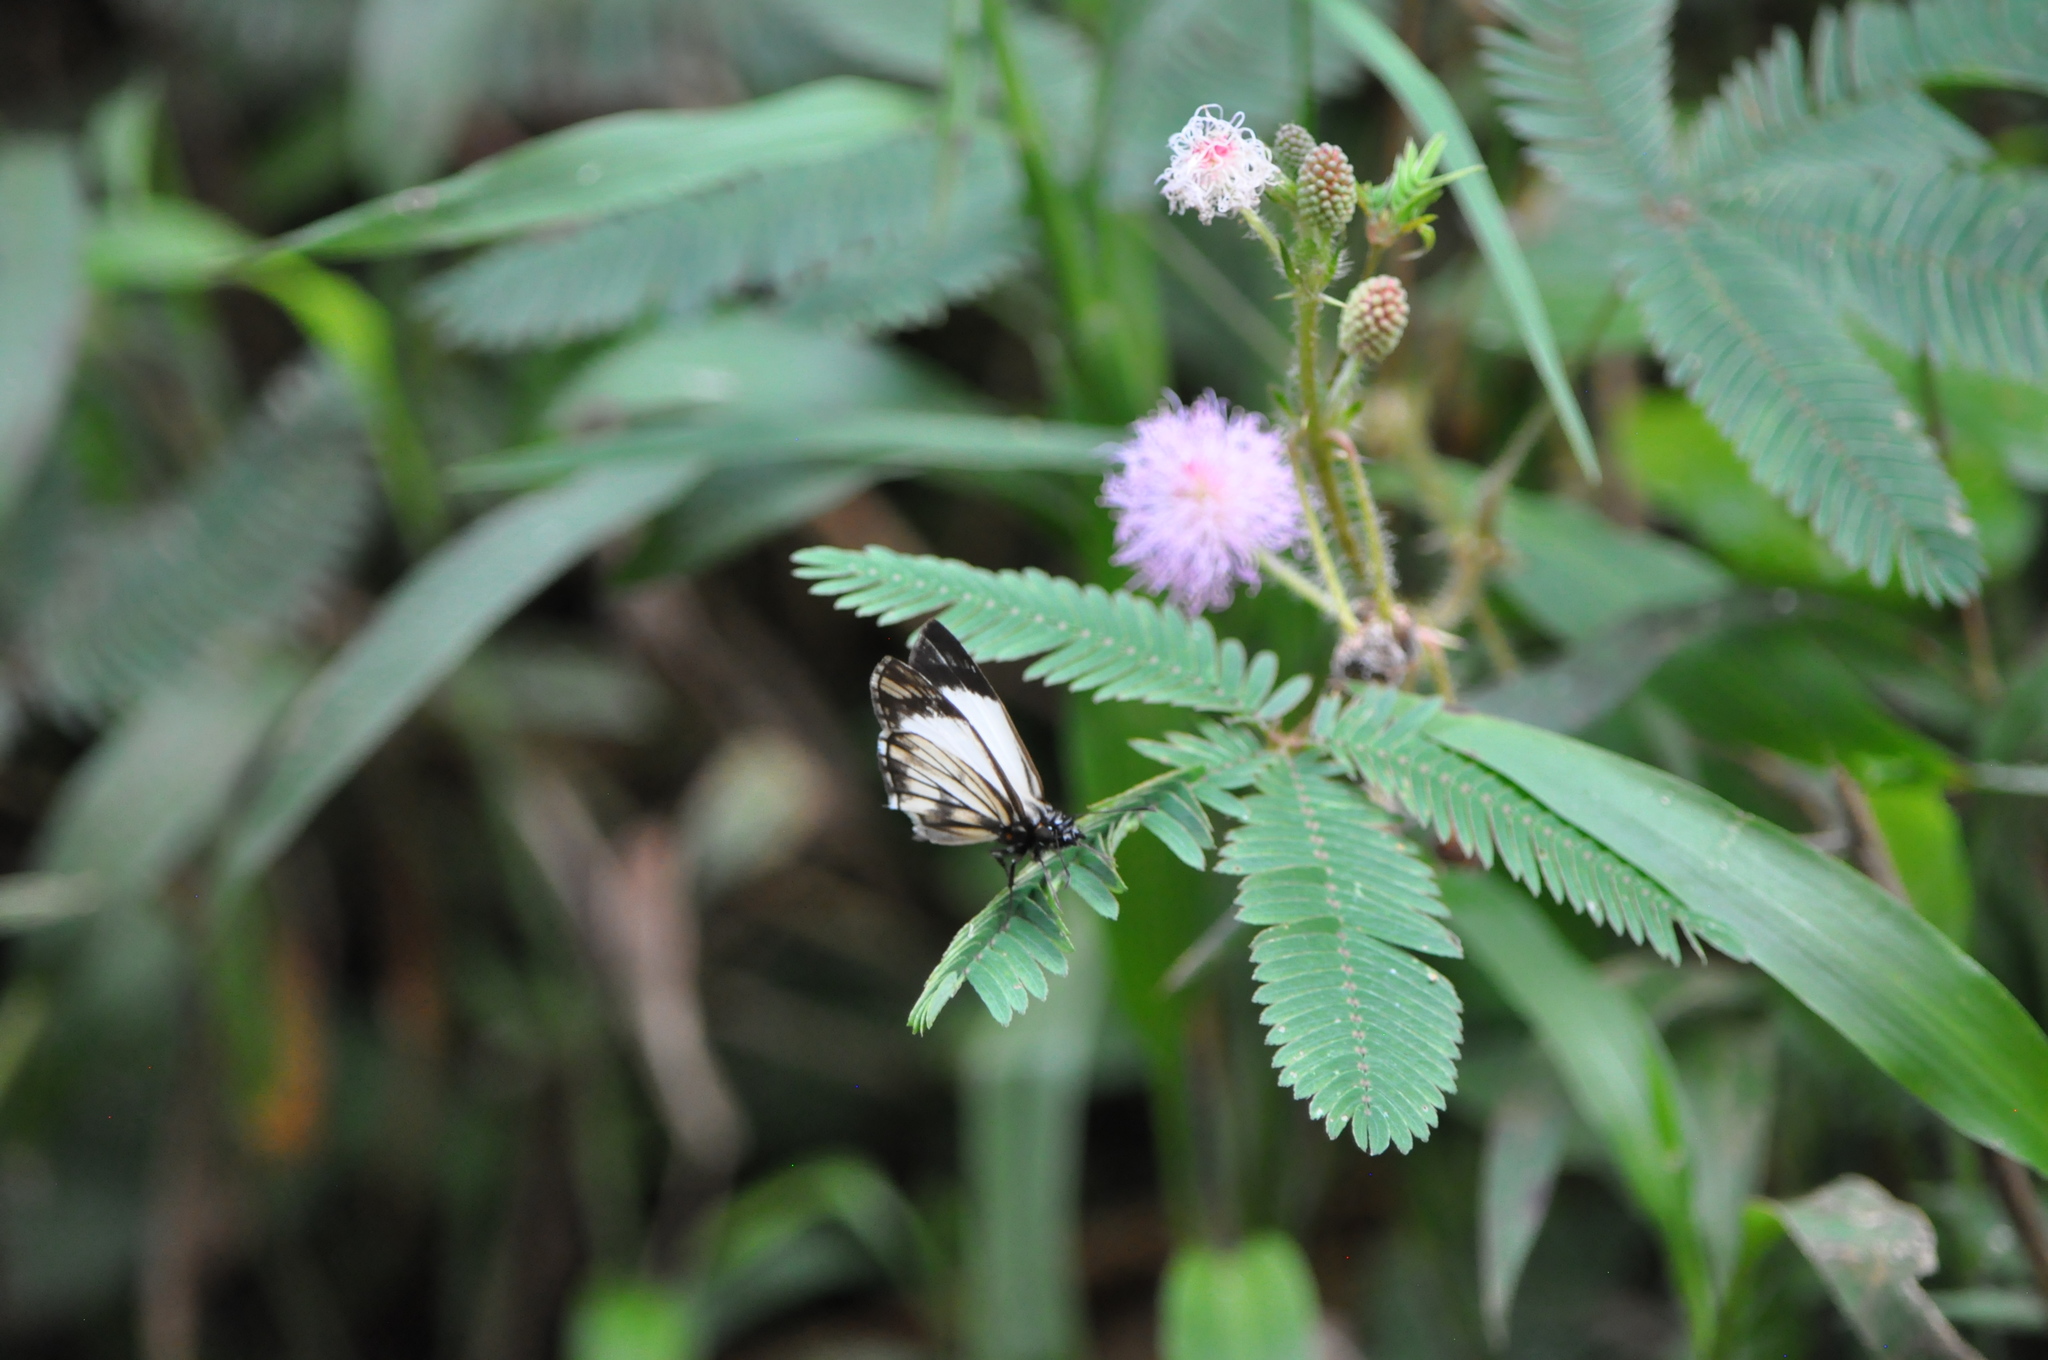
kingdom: Animalia
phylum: Arthropoda
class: Insecta
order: Lepidoptera
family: Hesperiidae
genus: Heliopetes
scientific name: Heliopetes alana
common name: Alana white-skipper
